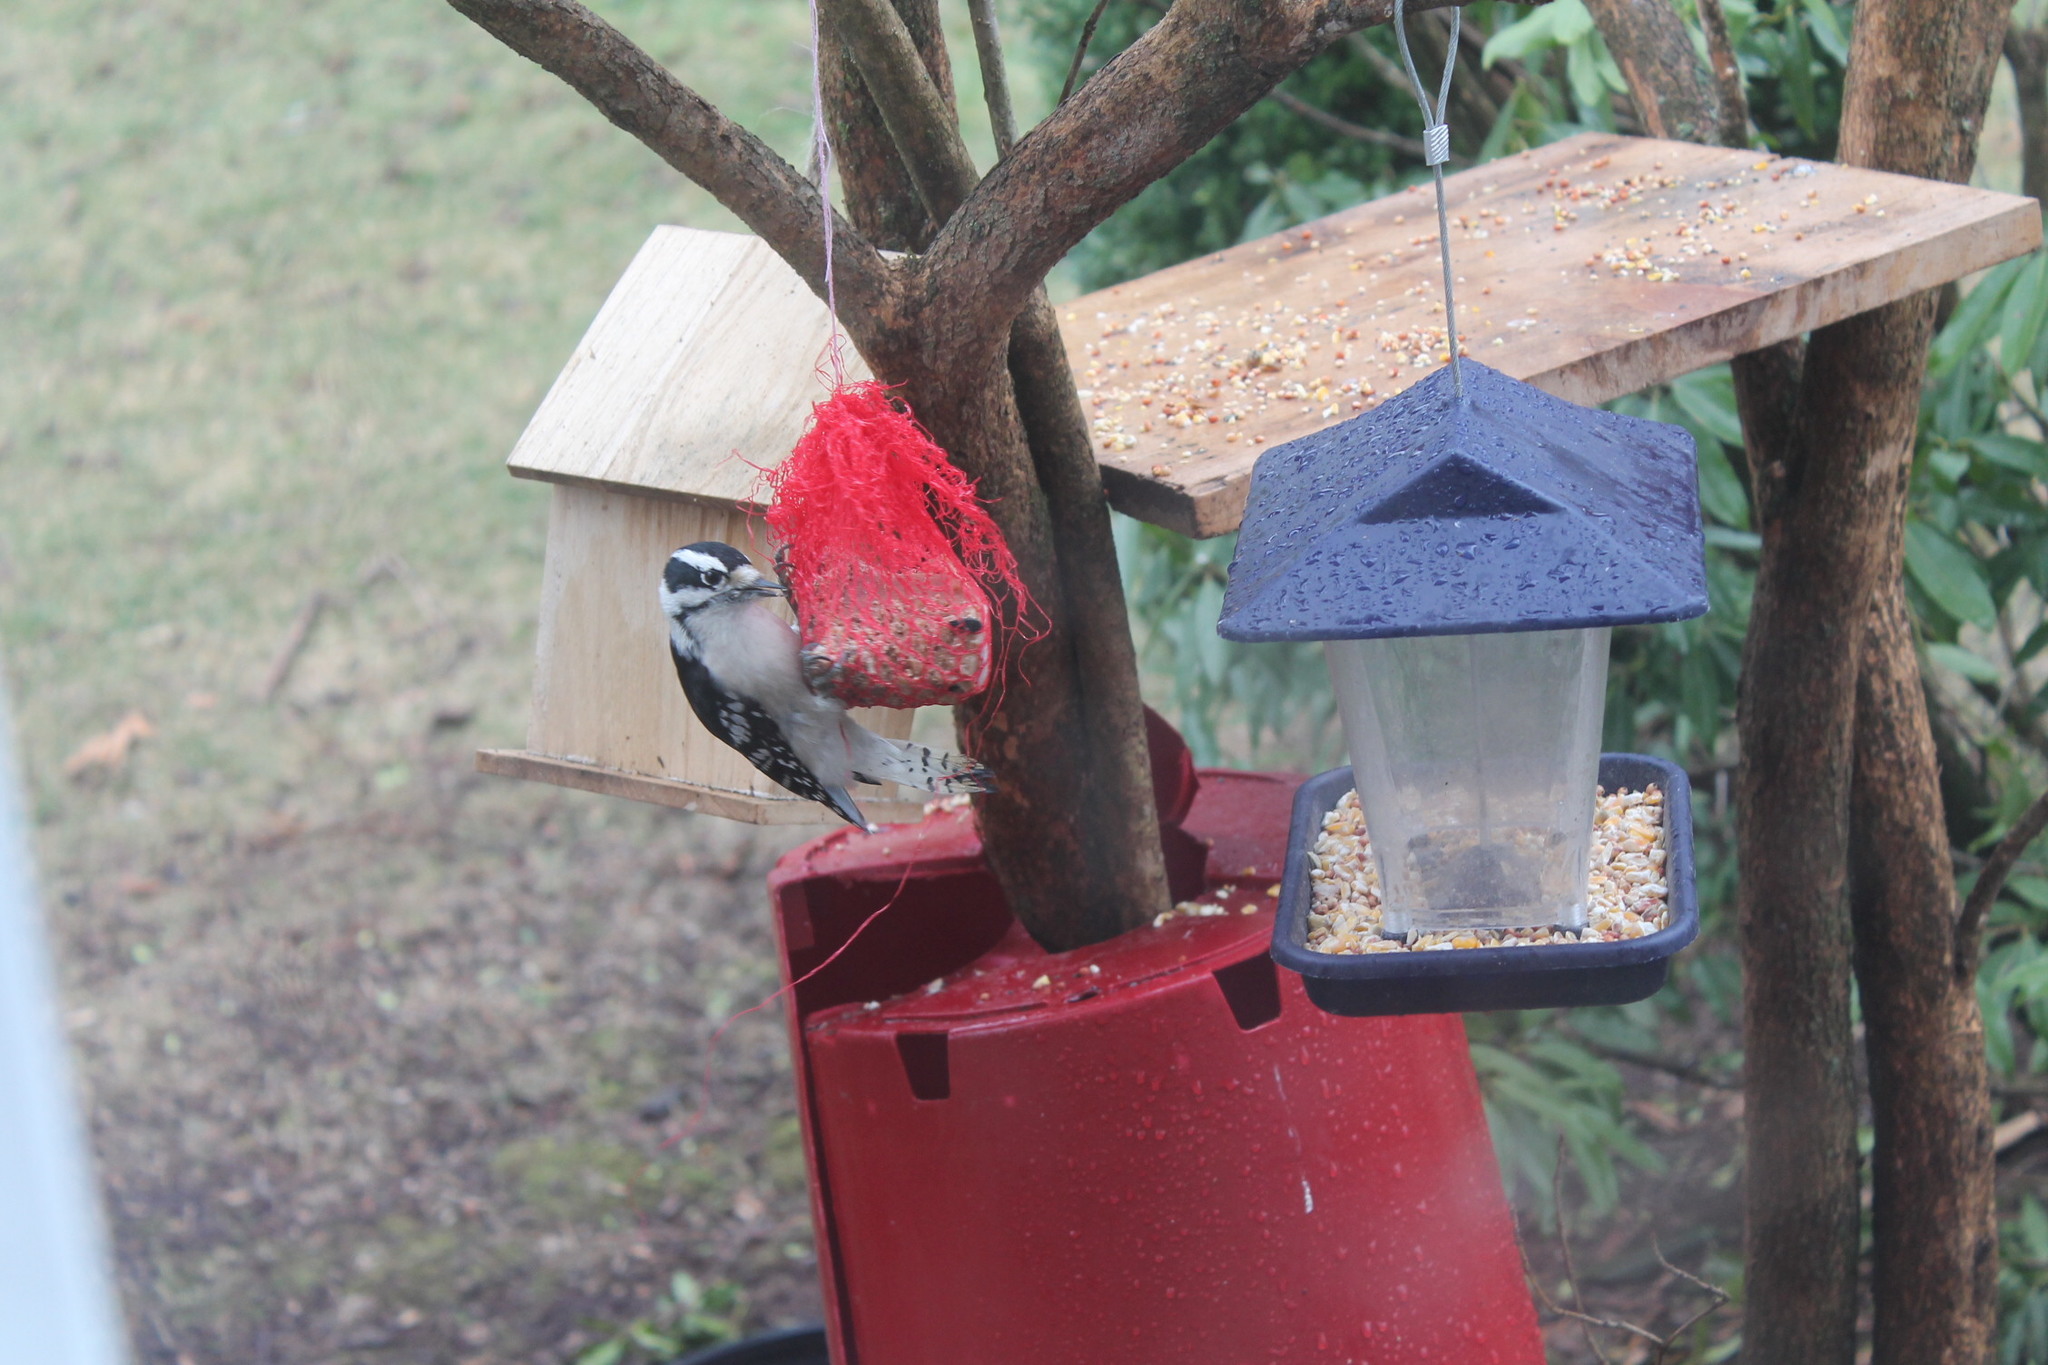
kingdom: Animalia
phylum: Chordata
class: Aves
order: Piciformes
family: Picidae
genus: Dryobates
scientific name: Dryobates pubescens
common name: Downy woodpecker
